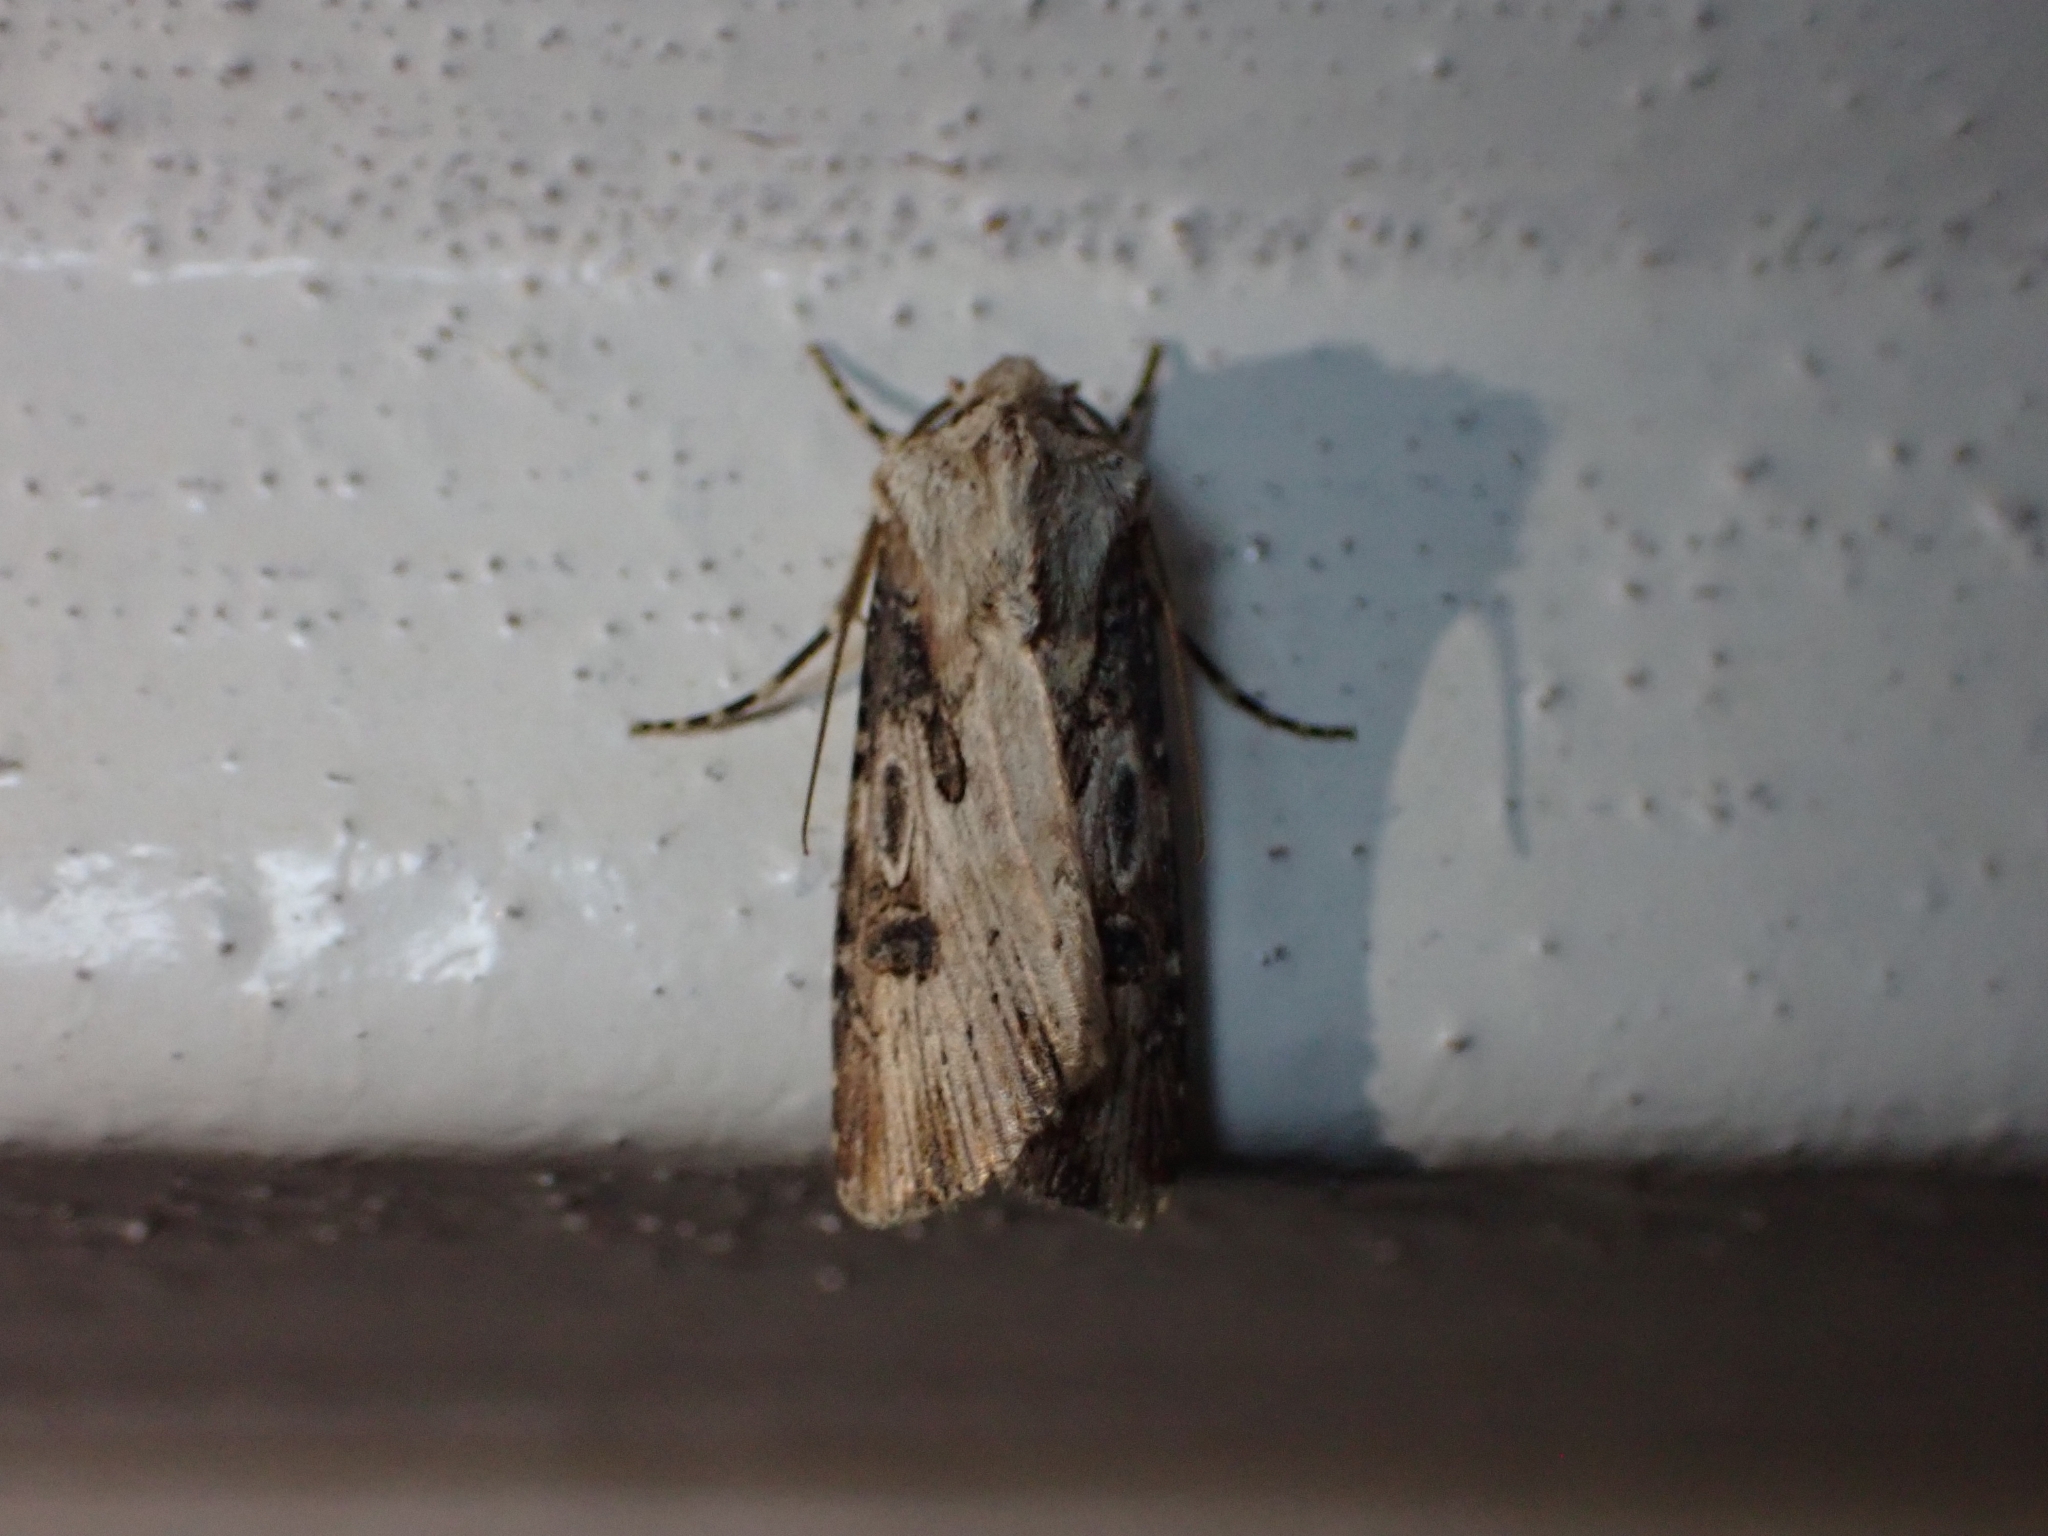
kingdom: Animalia
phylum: Arthropoda
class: Insecta
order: Lepidoptera
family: Noctuidae
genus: Agrotis
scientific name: Agrotis puta
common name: Shuttle-shaped dart
